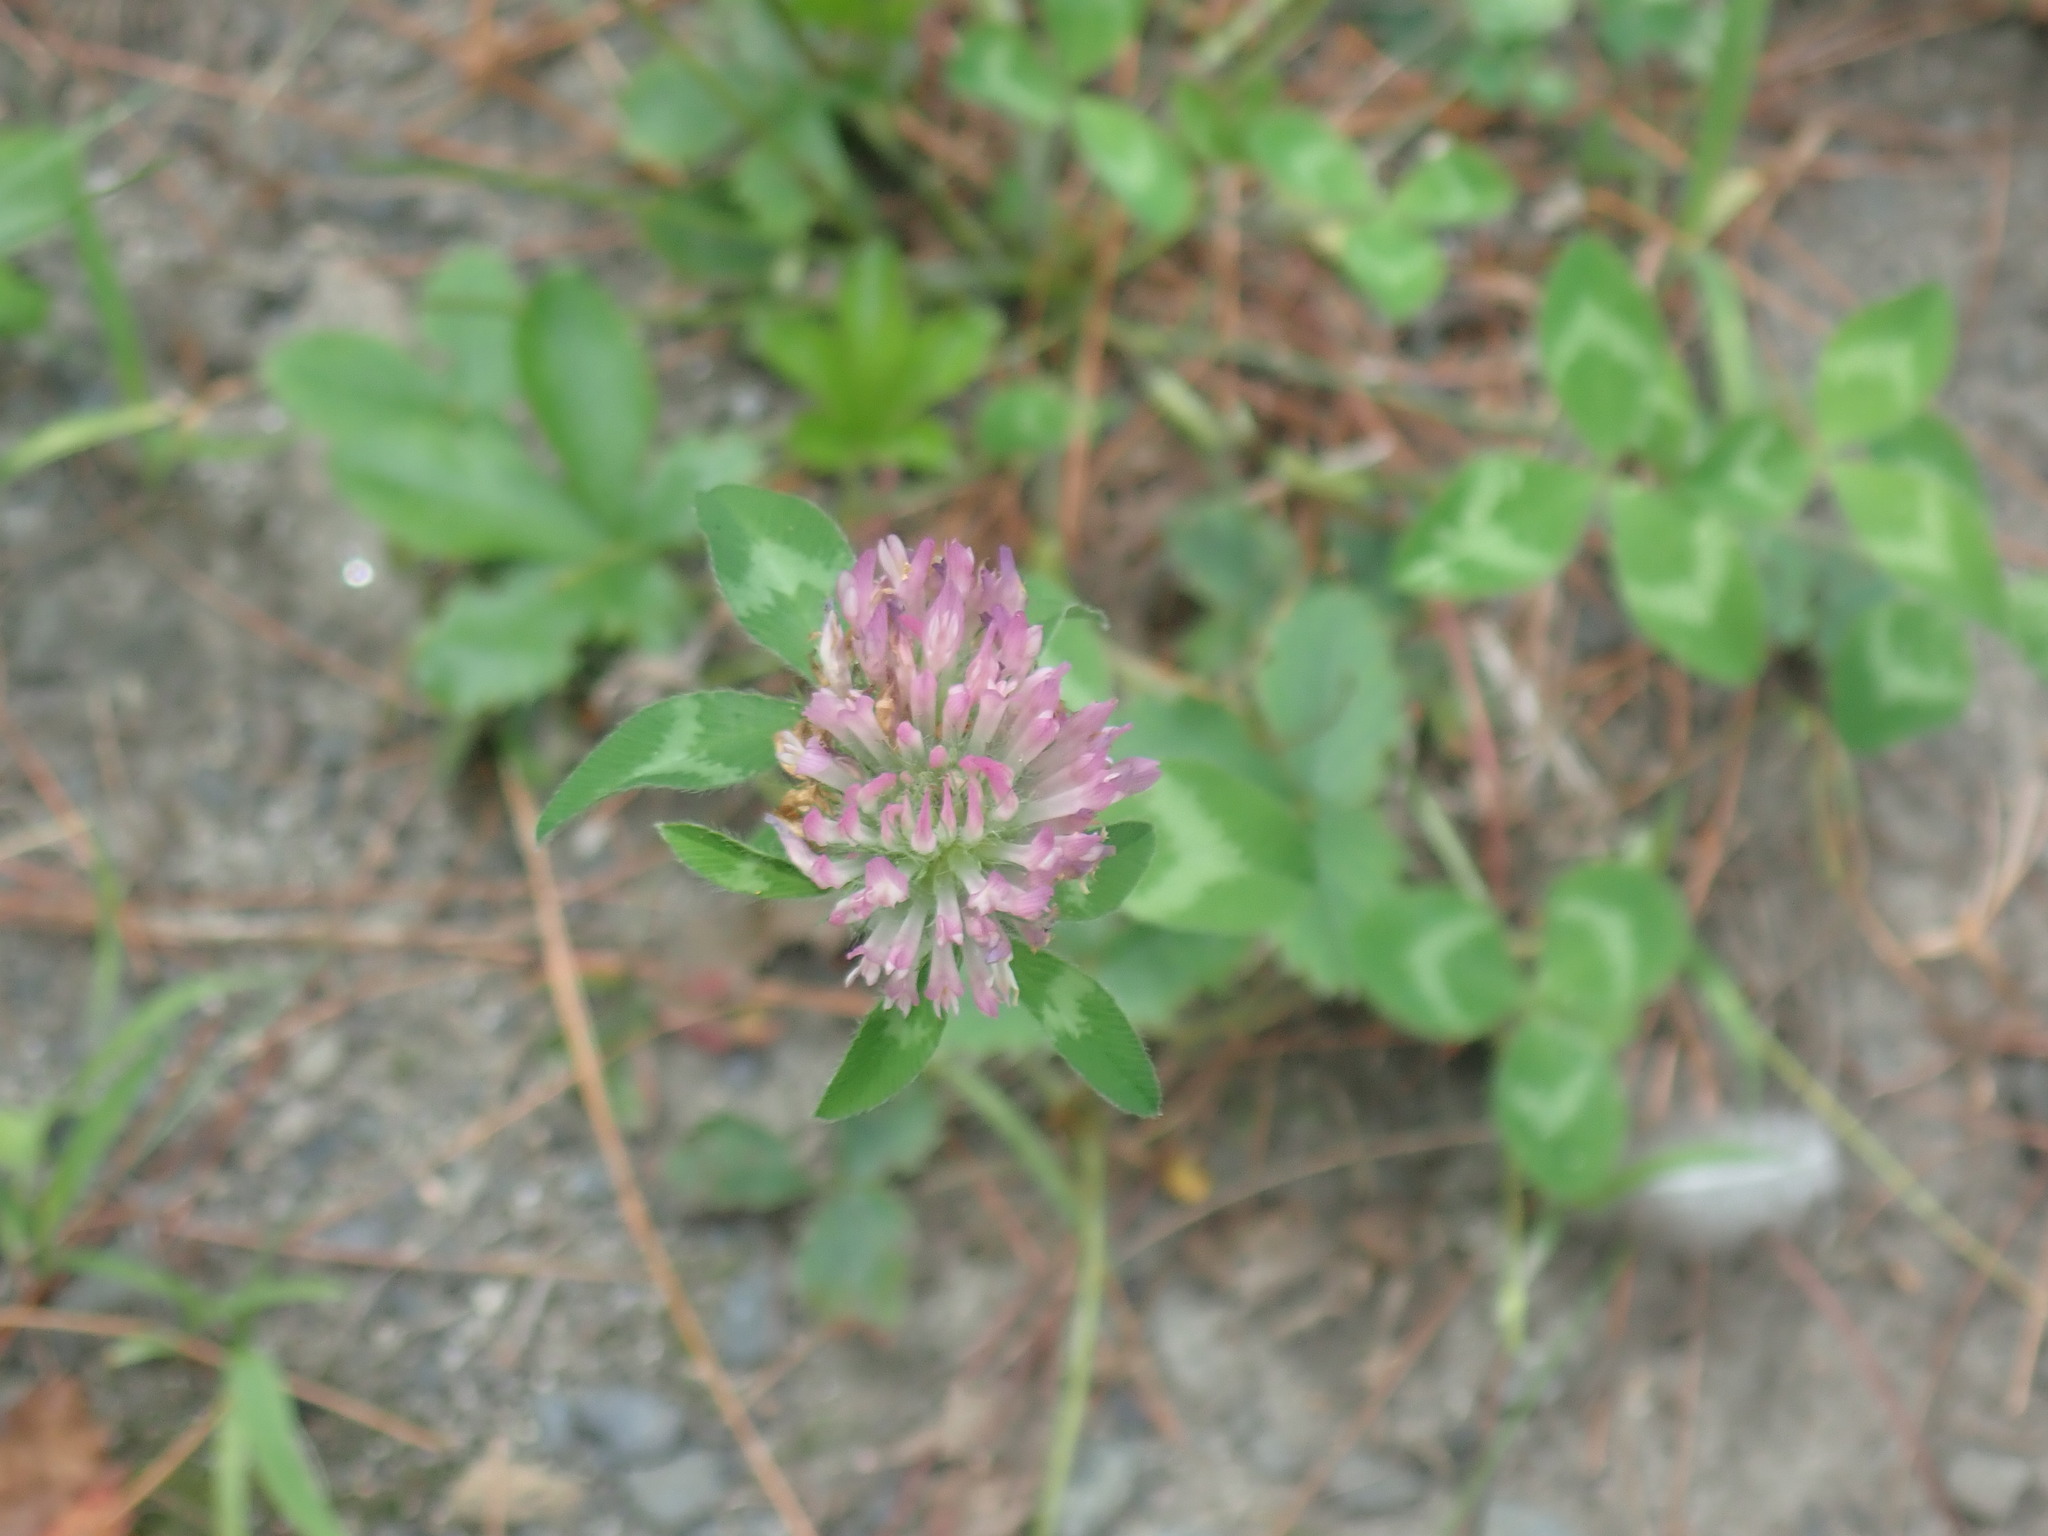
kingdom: Plantae
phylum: Tracheophyta
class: Magnoliopsida
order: Fabales
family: Fabaceae
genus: Trifolium
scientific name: Trifolium pratense
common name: Red clover
